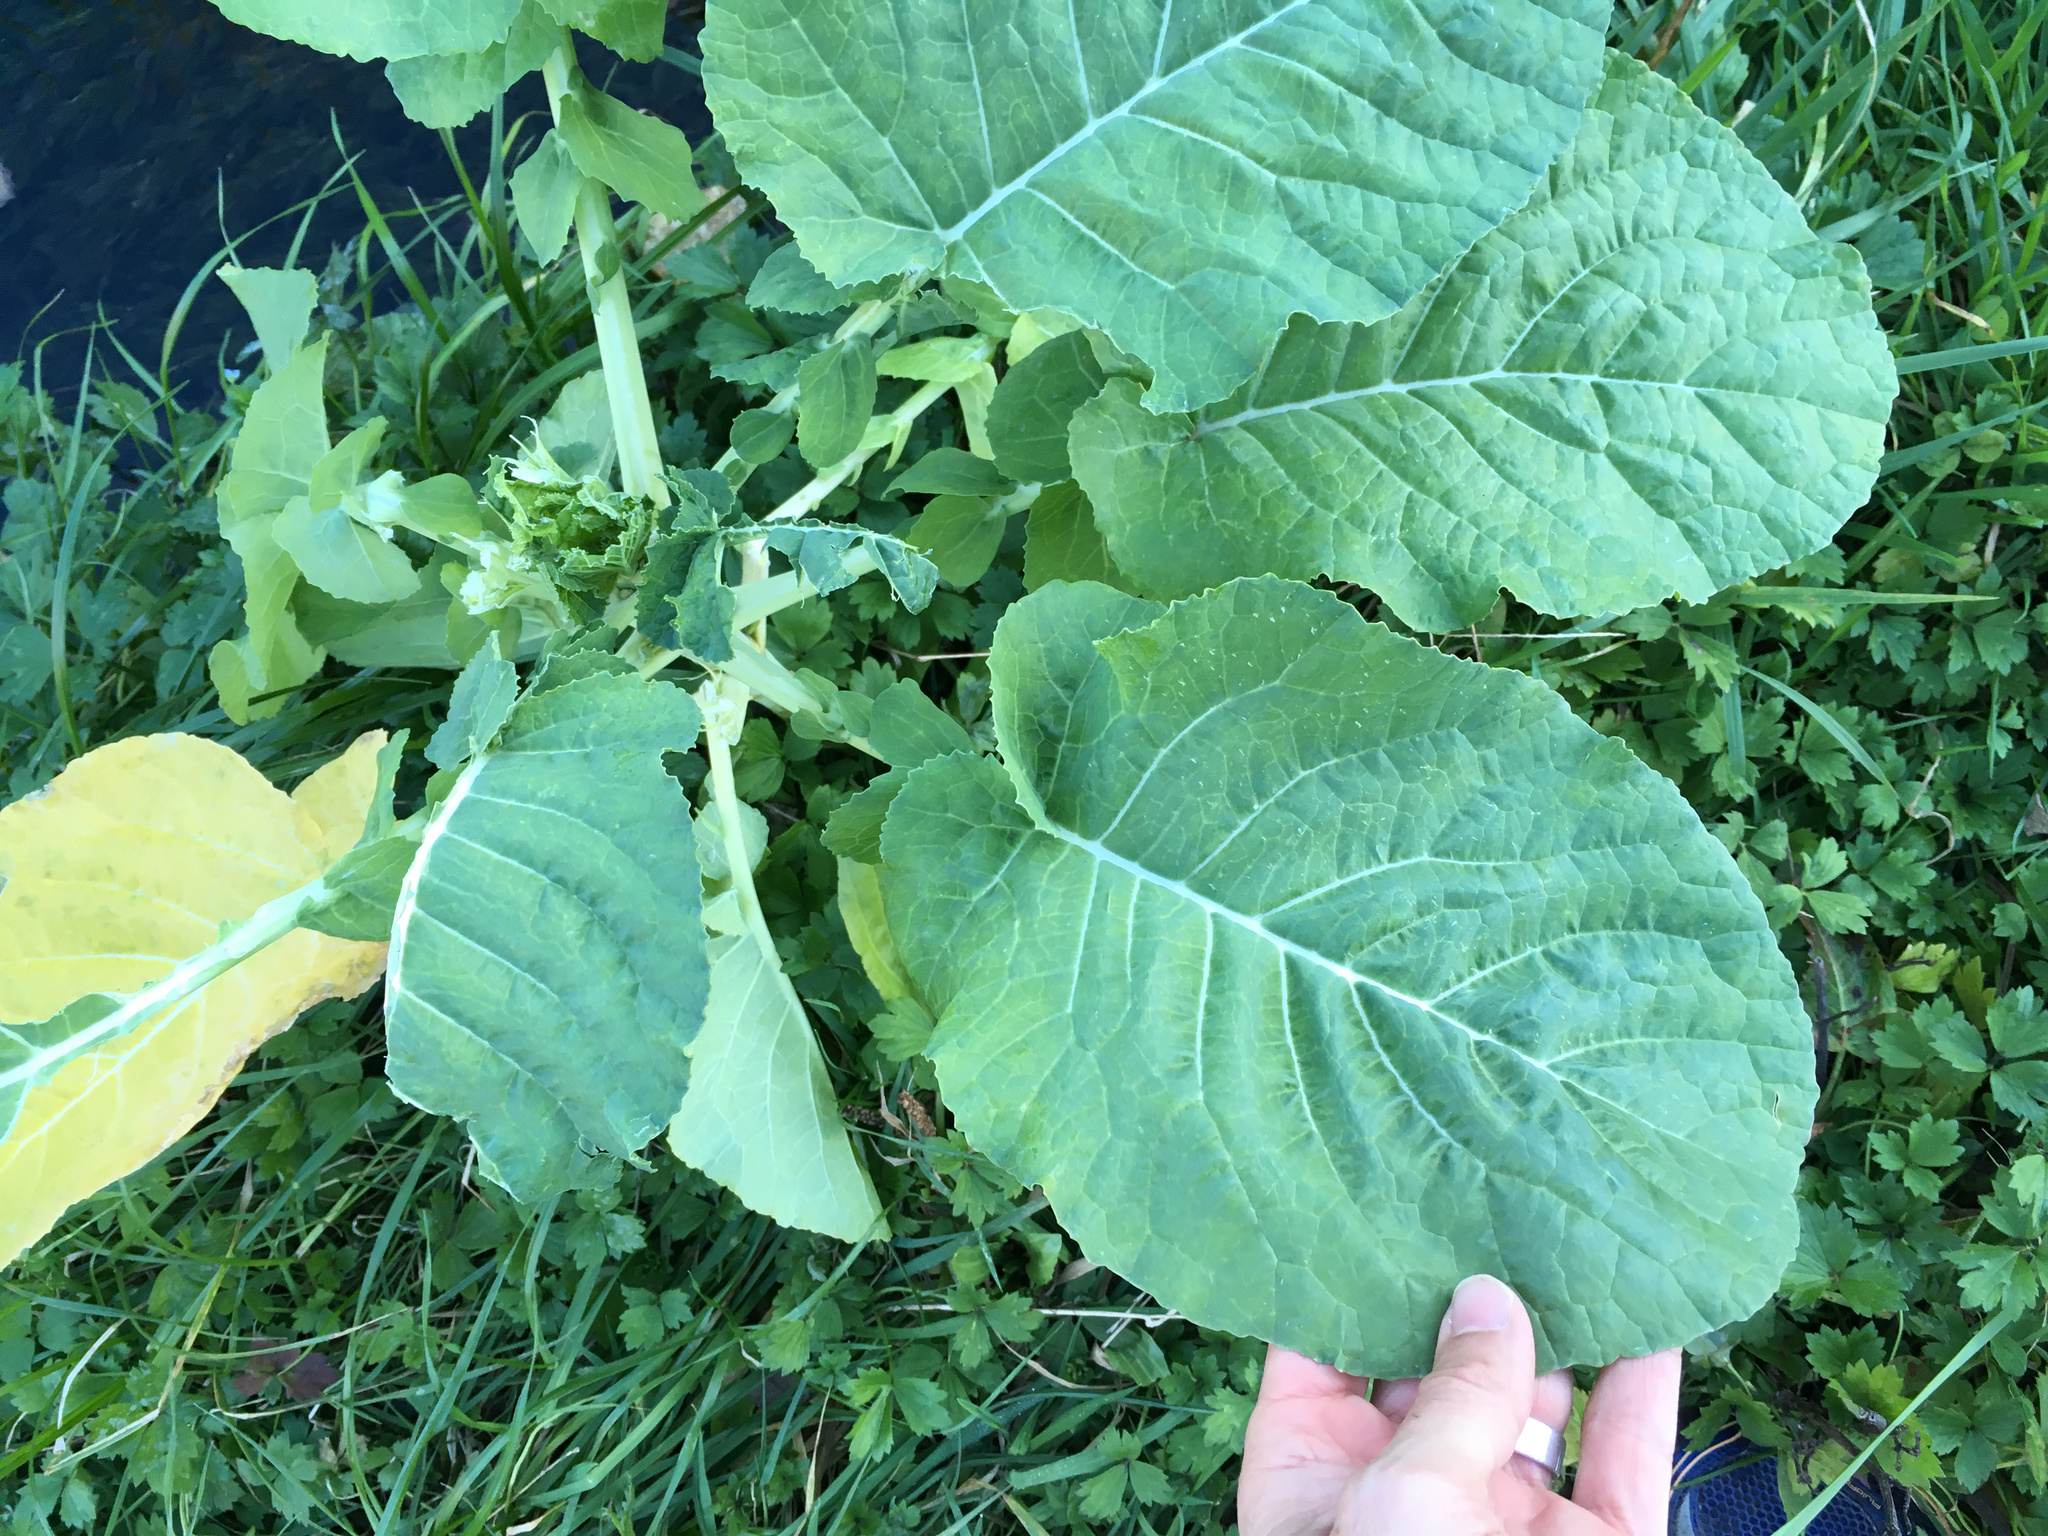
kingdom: Plantae
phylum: Tracheophyta
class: Magnoliopsida
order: Brassicales
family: Brassicaceae
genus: Brassica
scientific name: Brassica oleracea
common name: Cabbage
